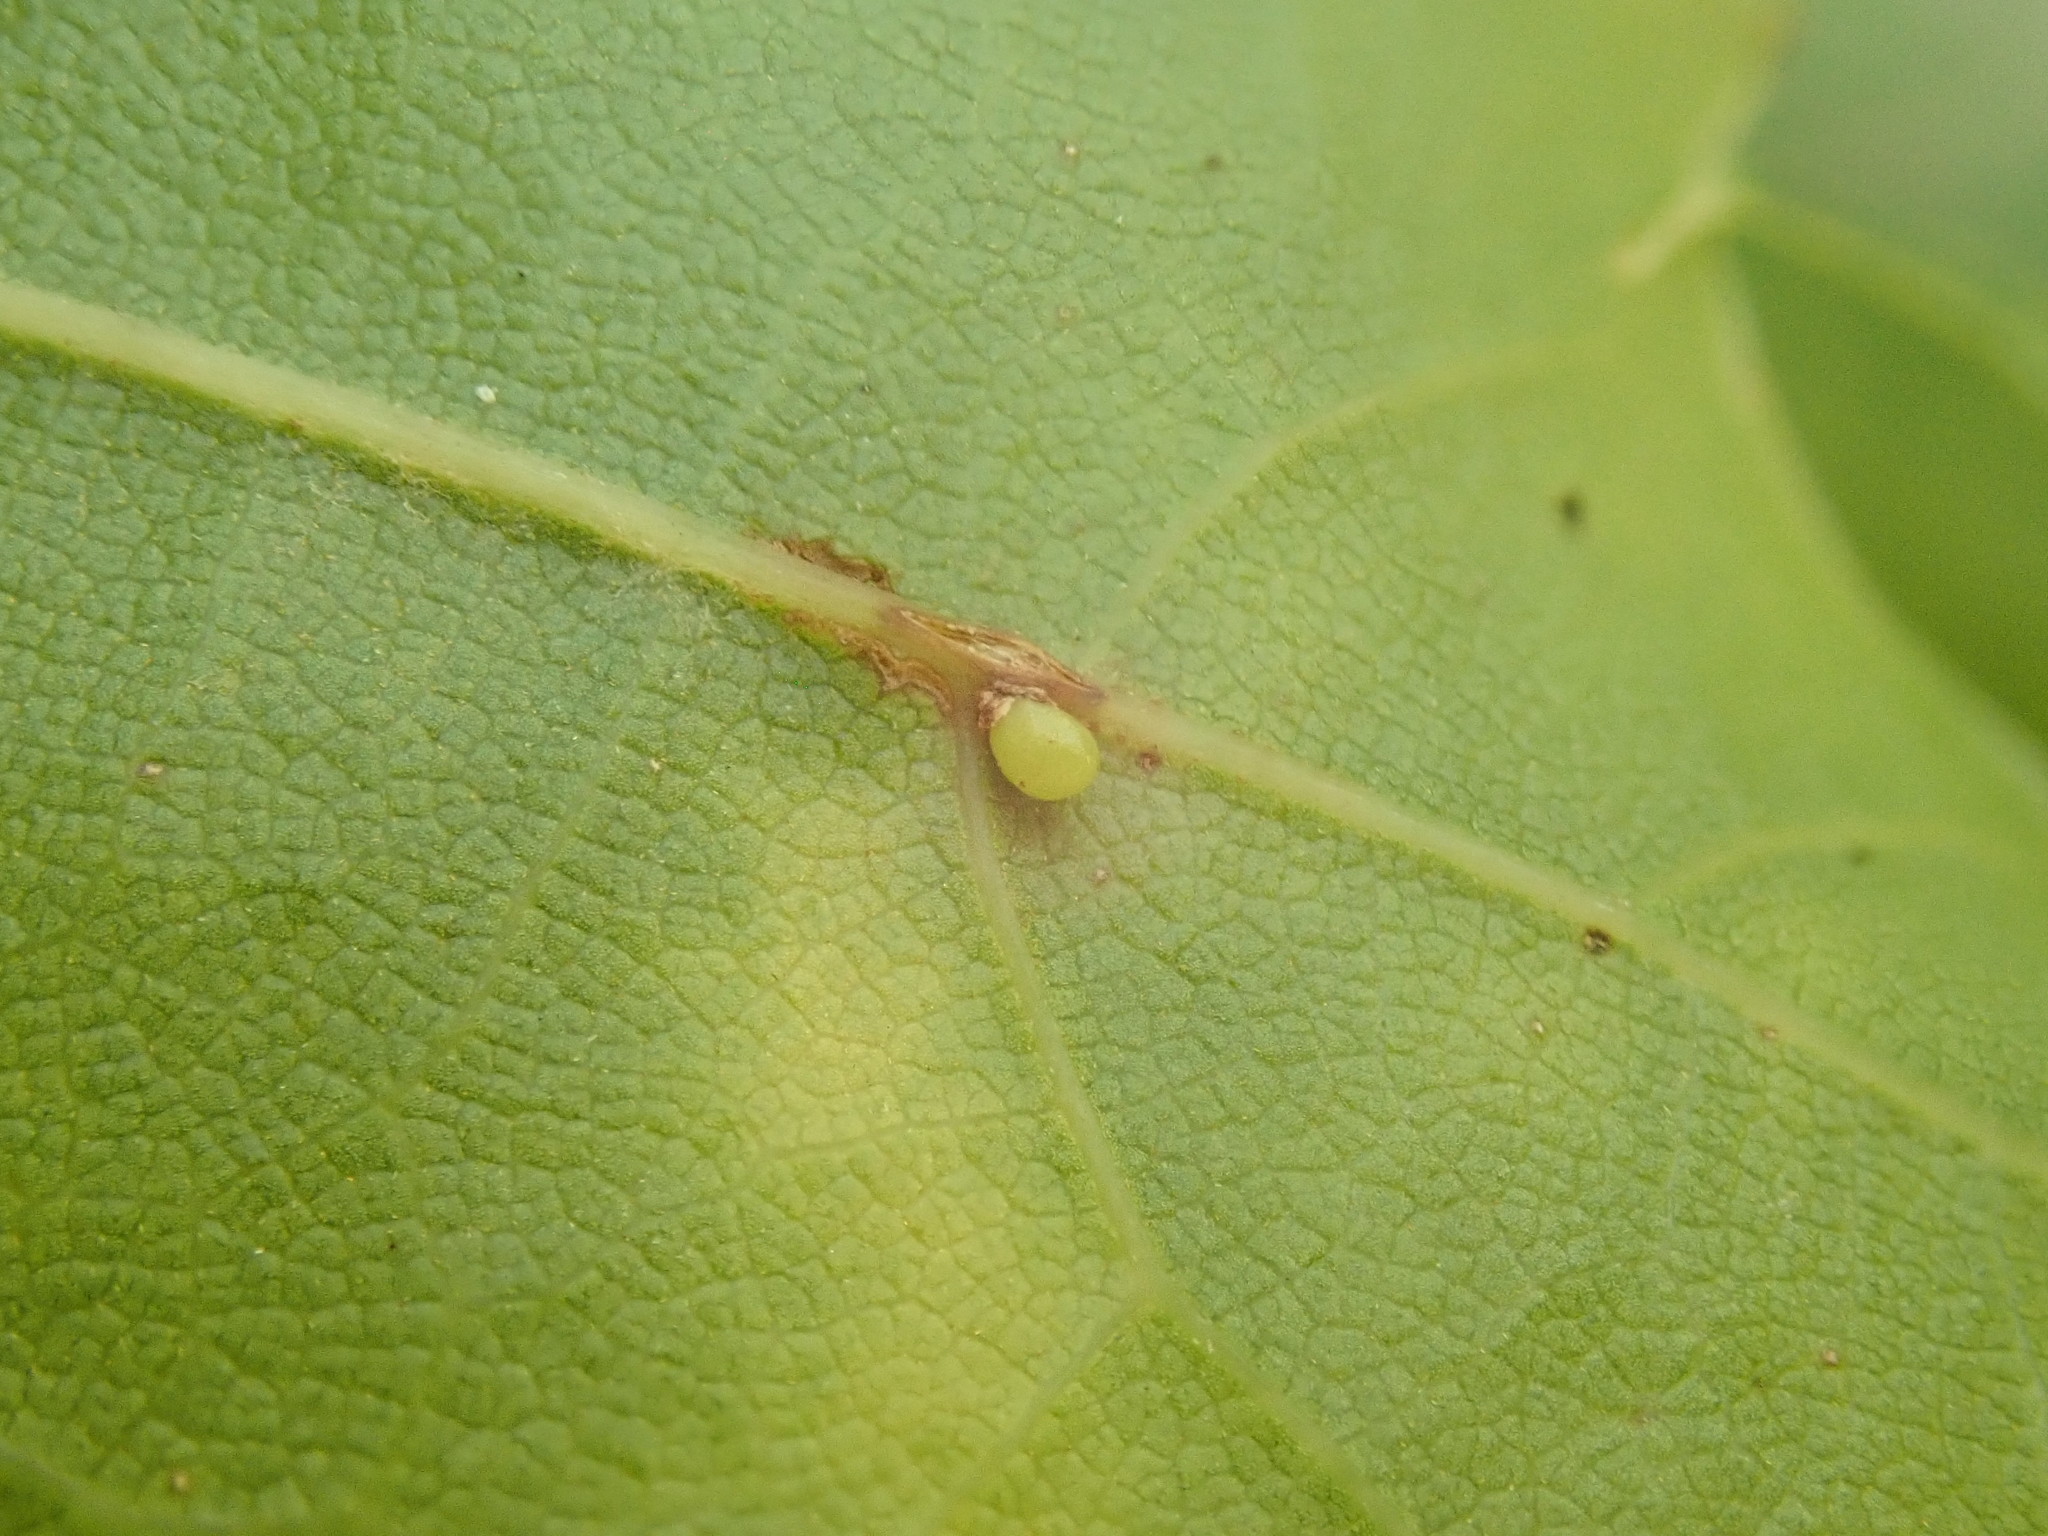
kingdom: Animalia
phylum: Arthropoda
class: Insecta
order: Hymenoptera
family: Cynipidae
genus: Zopheroteras
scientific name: Zopheroteras
